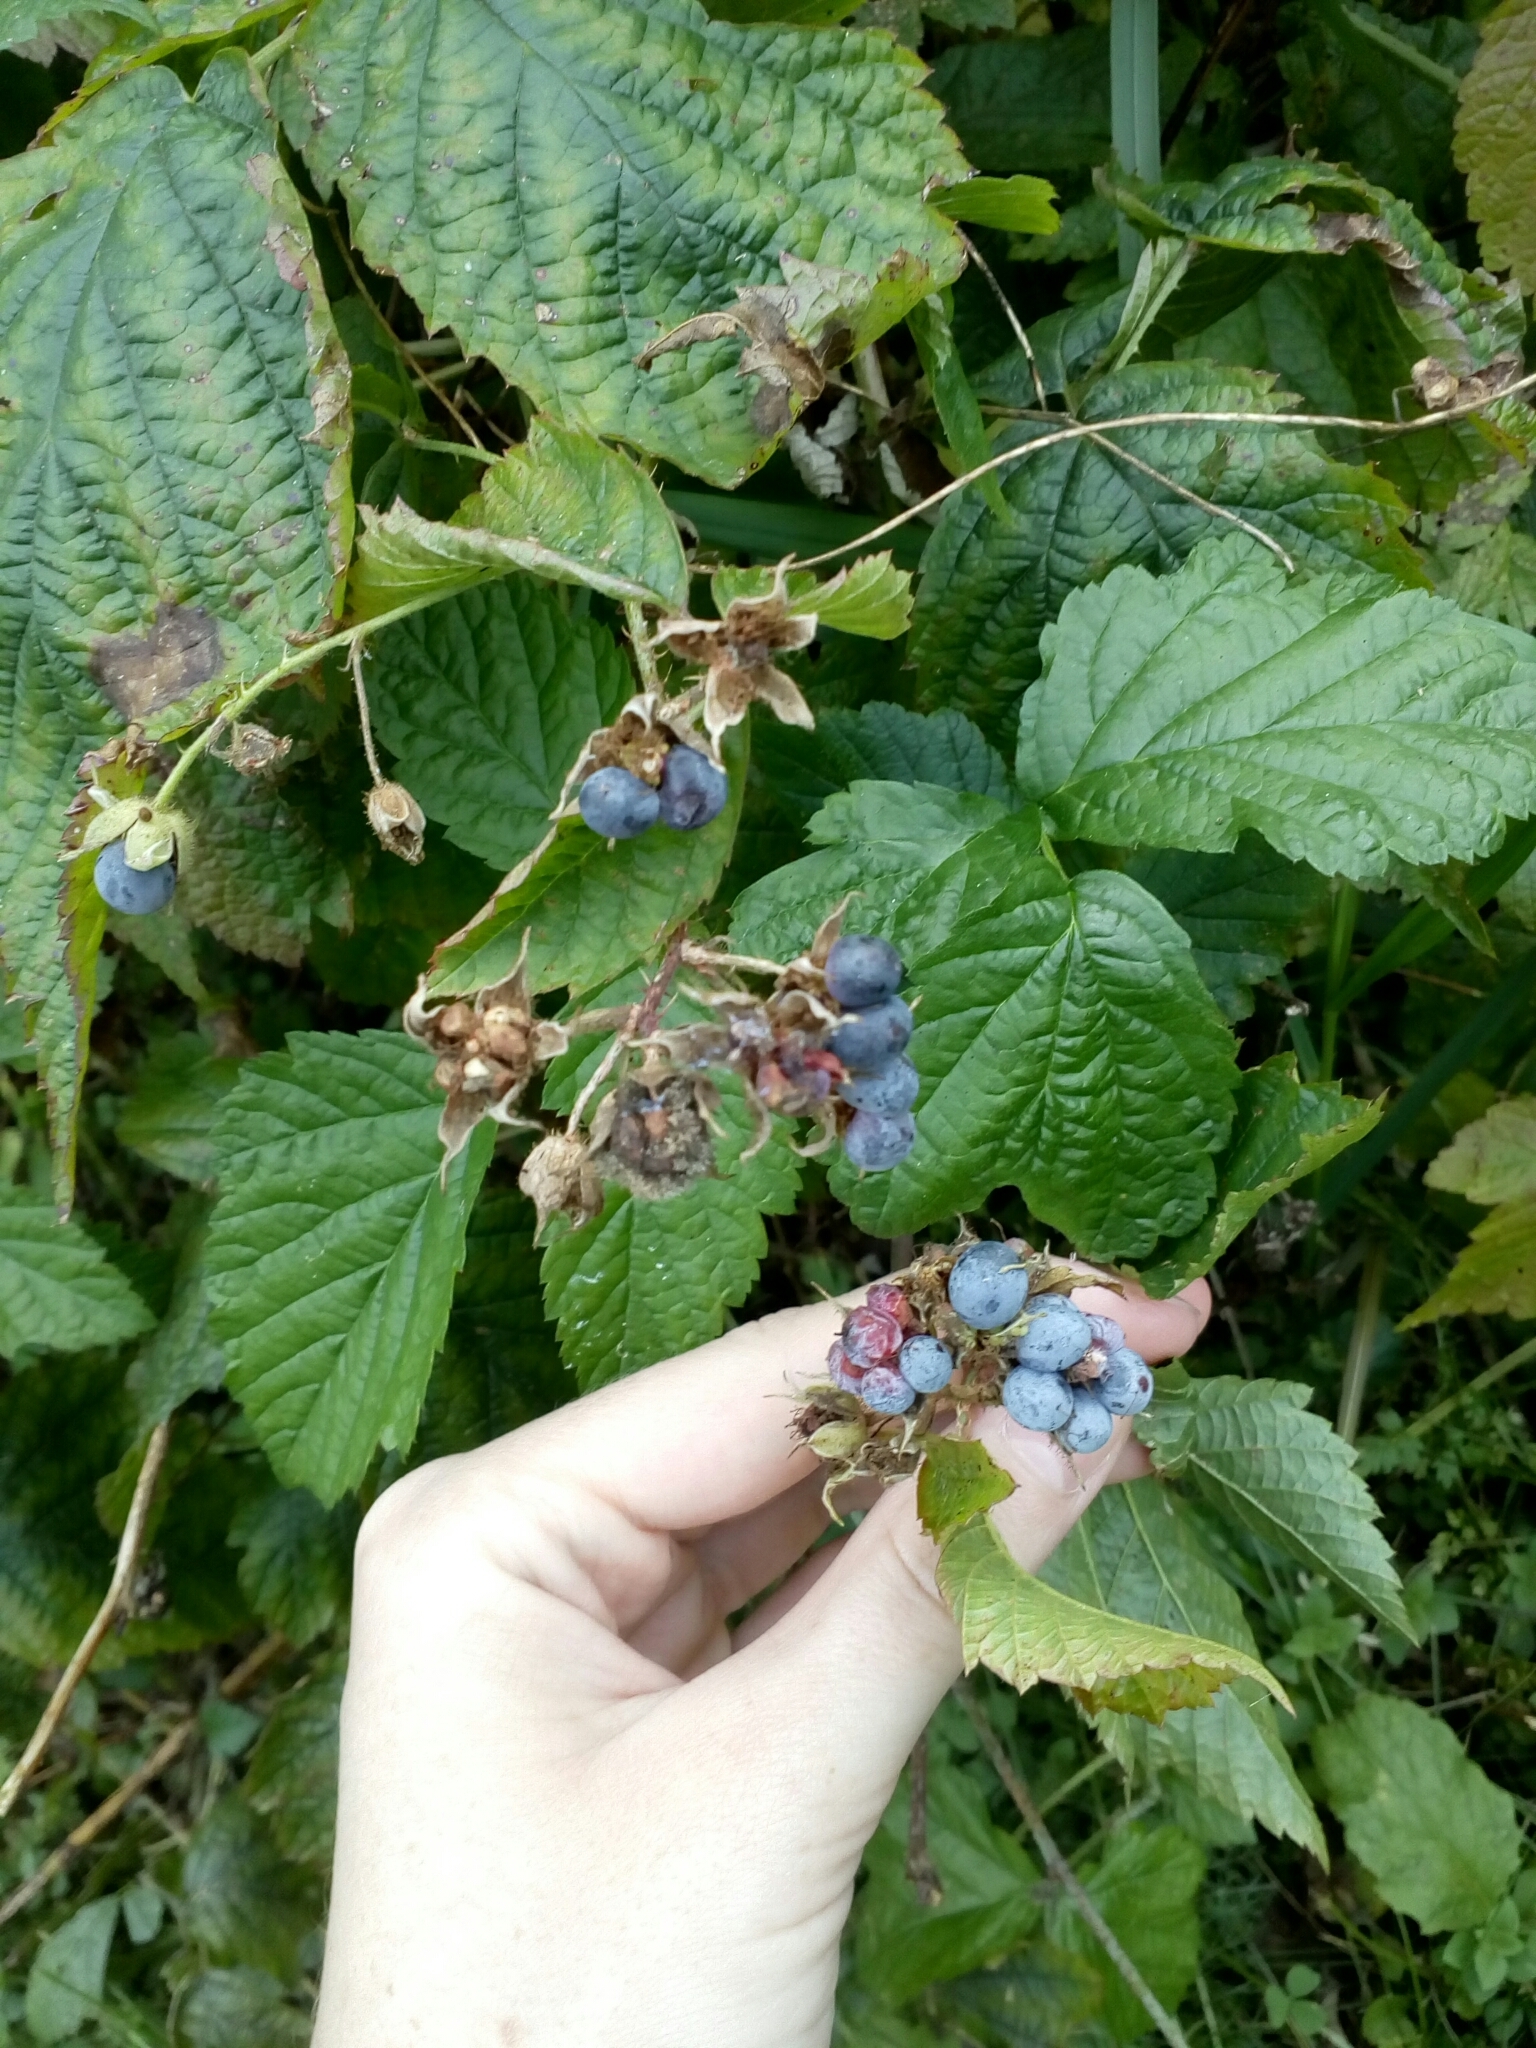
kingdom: Plantae
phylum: Tracheophyta
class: Magnoliopsida
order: Rosales
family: Rosaceae
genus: Rubus
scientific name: Rubus caesius
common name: Dewberry
